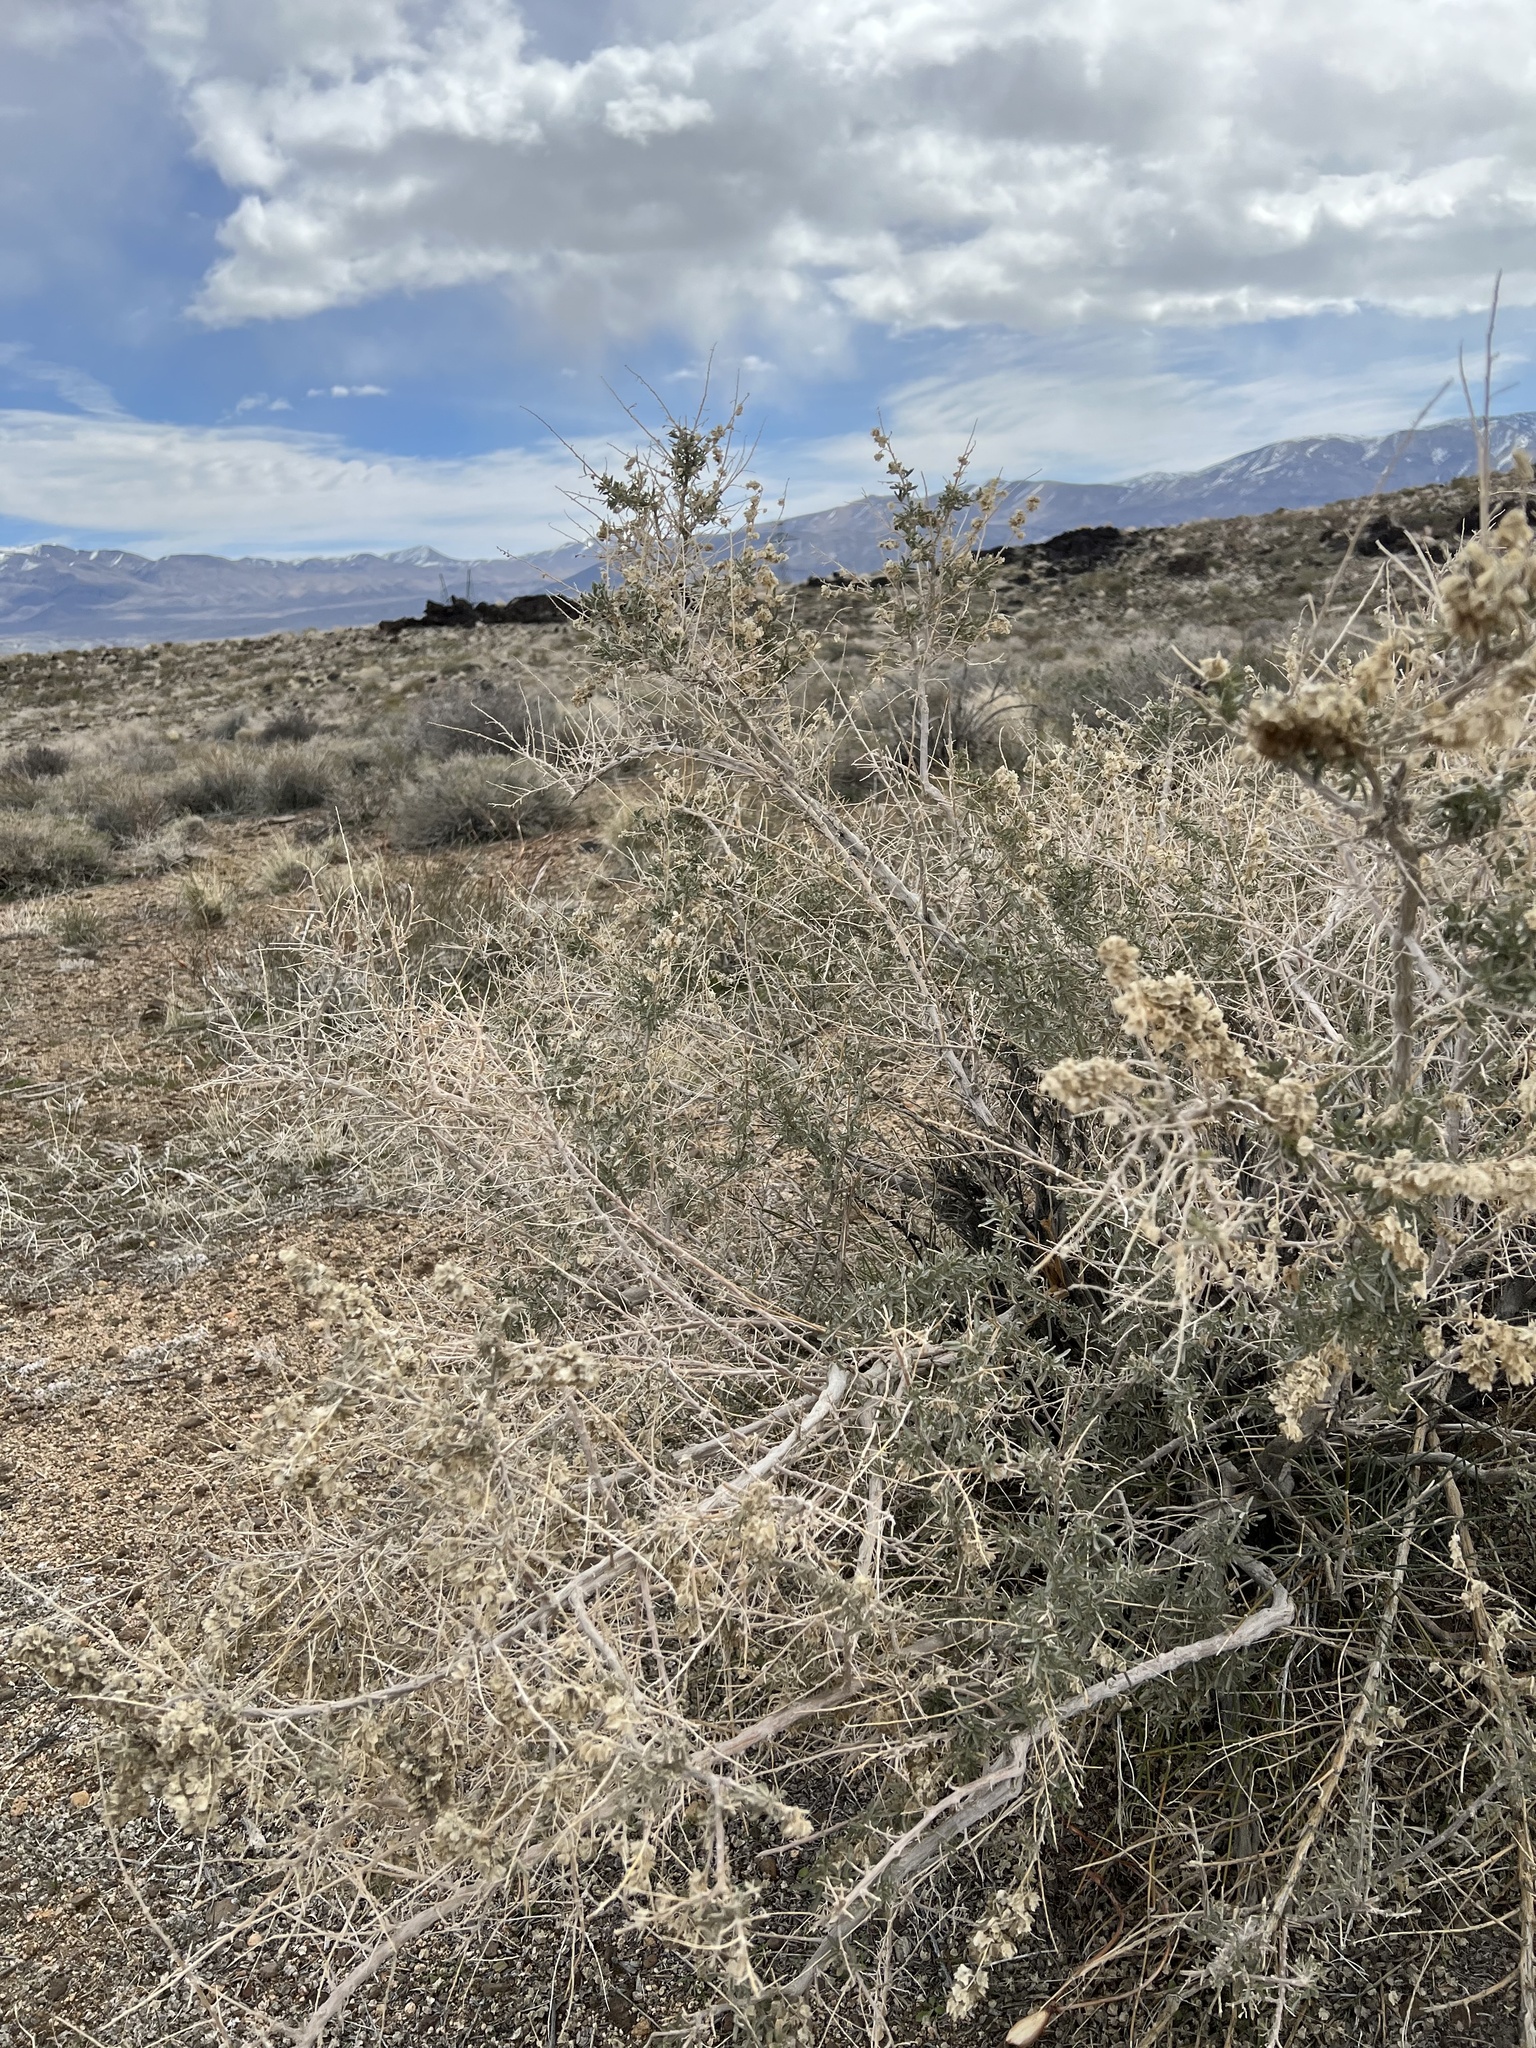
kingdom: Plantae
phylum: Tracheophyta
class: Magnoliopsida
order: Caryophyllales
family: Amaranthaceae
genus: Atriplex
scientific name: Atriplex canescens
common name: Four-wing saltbush
